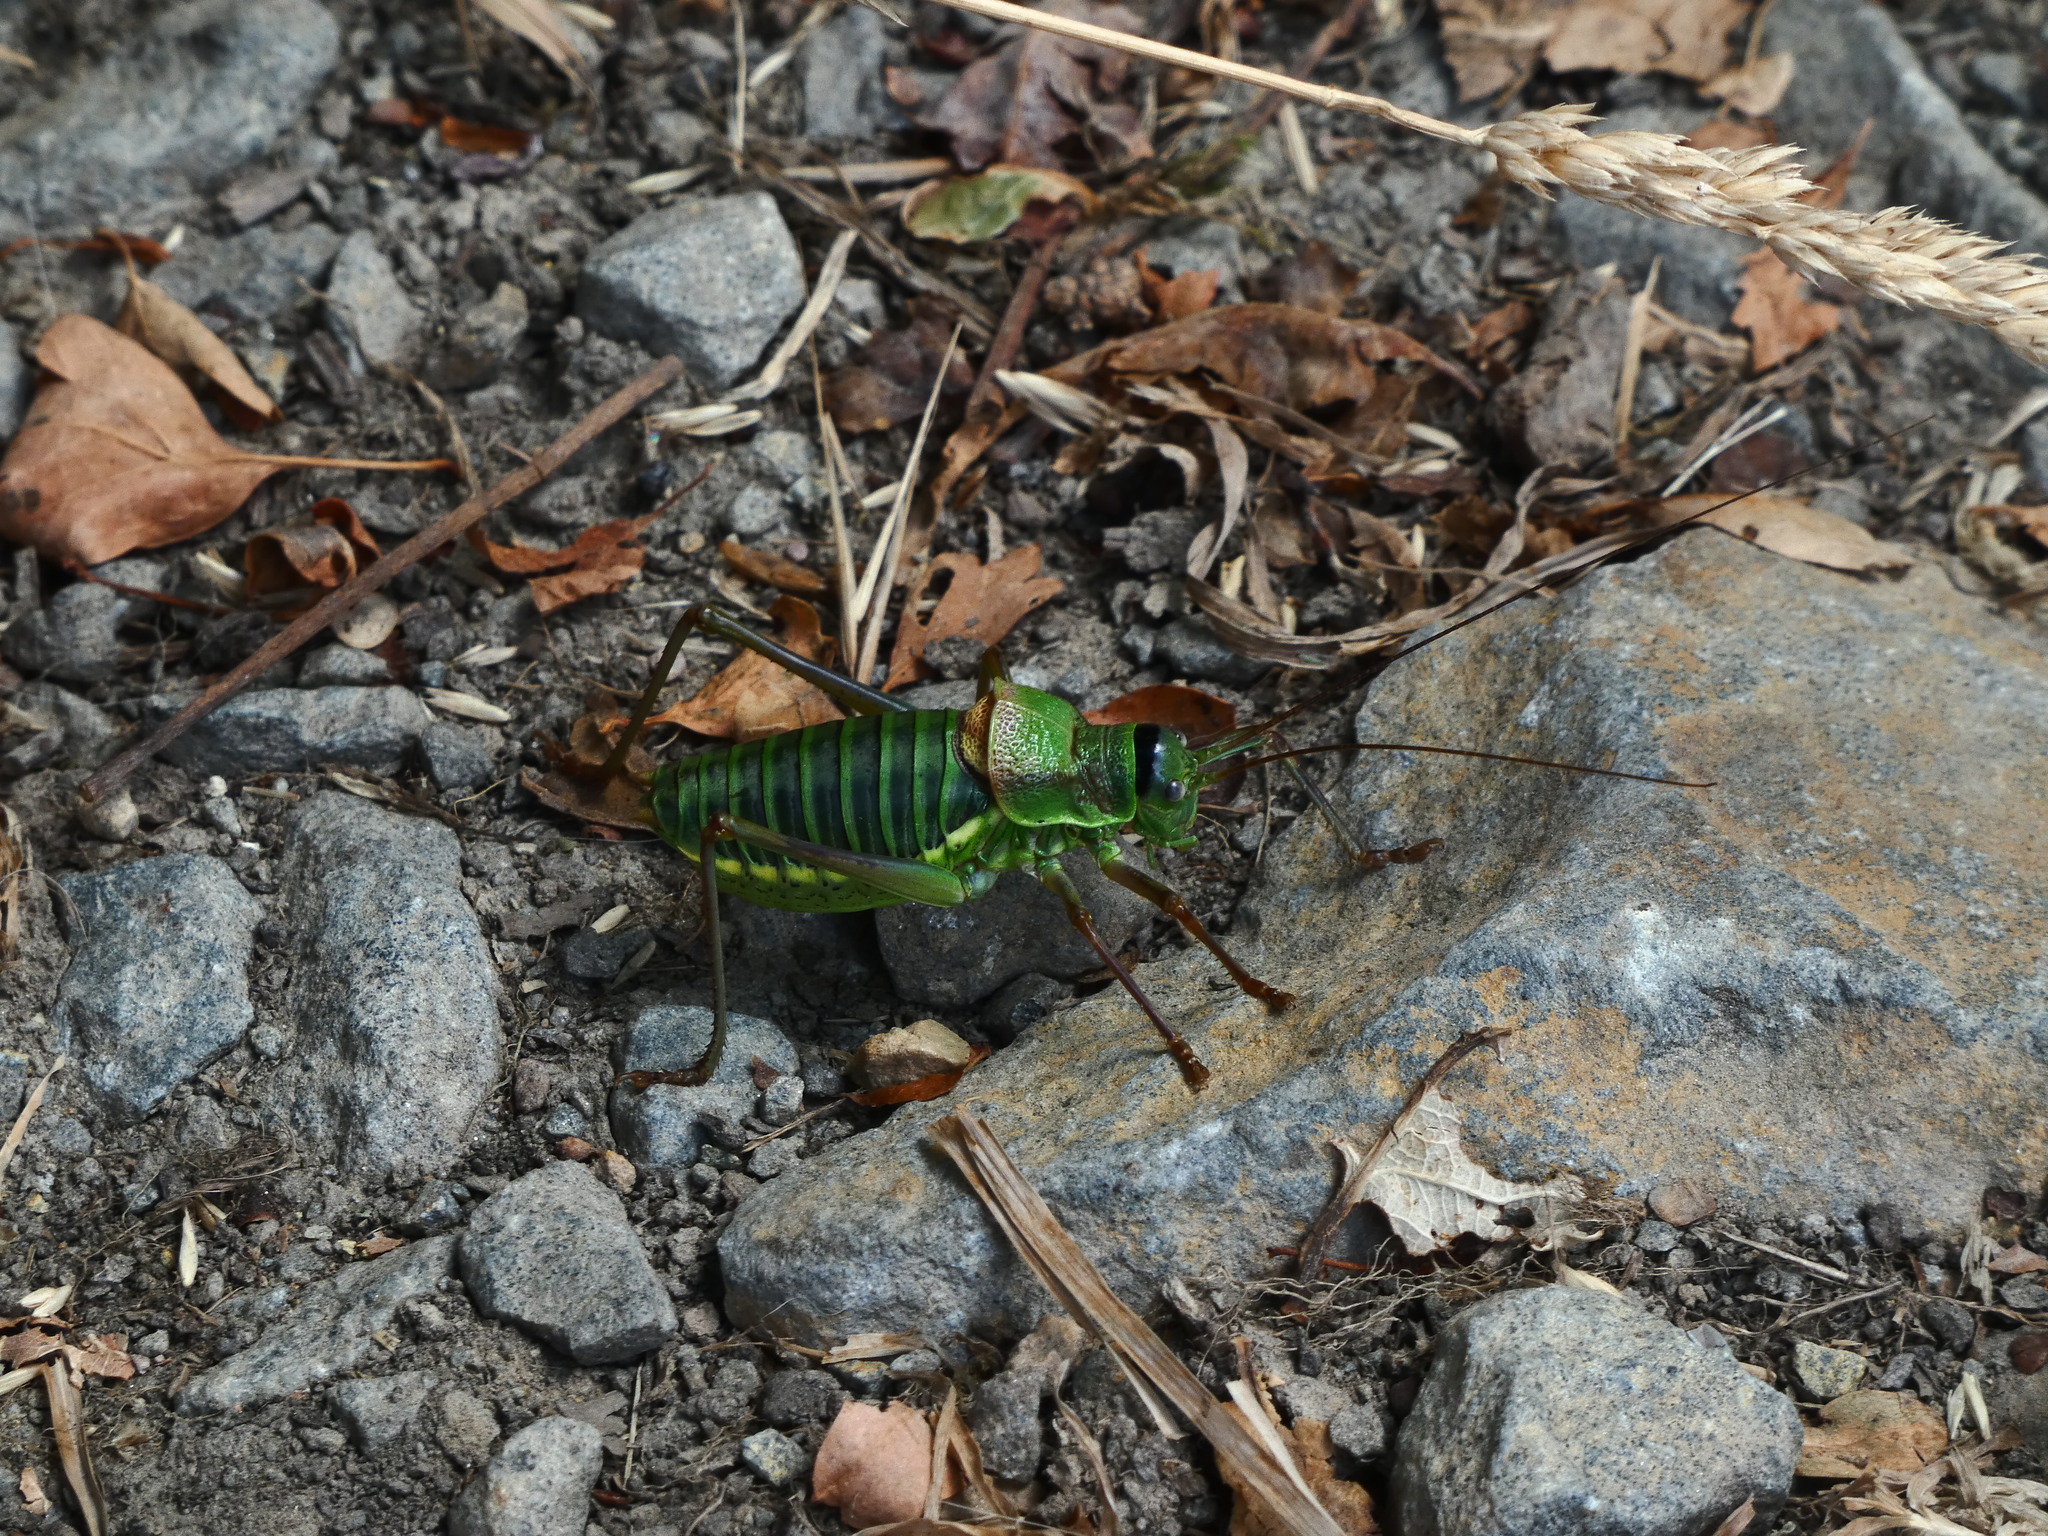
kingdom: Animalia
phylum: Arthropoda
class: Insecta
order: Orthoptera
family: Tettigoniidae
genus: Ephippiger
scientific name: Ephippiger diurnus
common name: Western saddle bush-cricket
